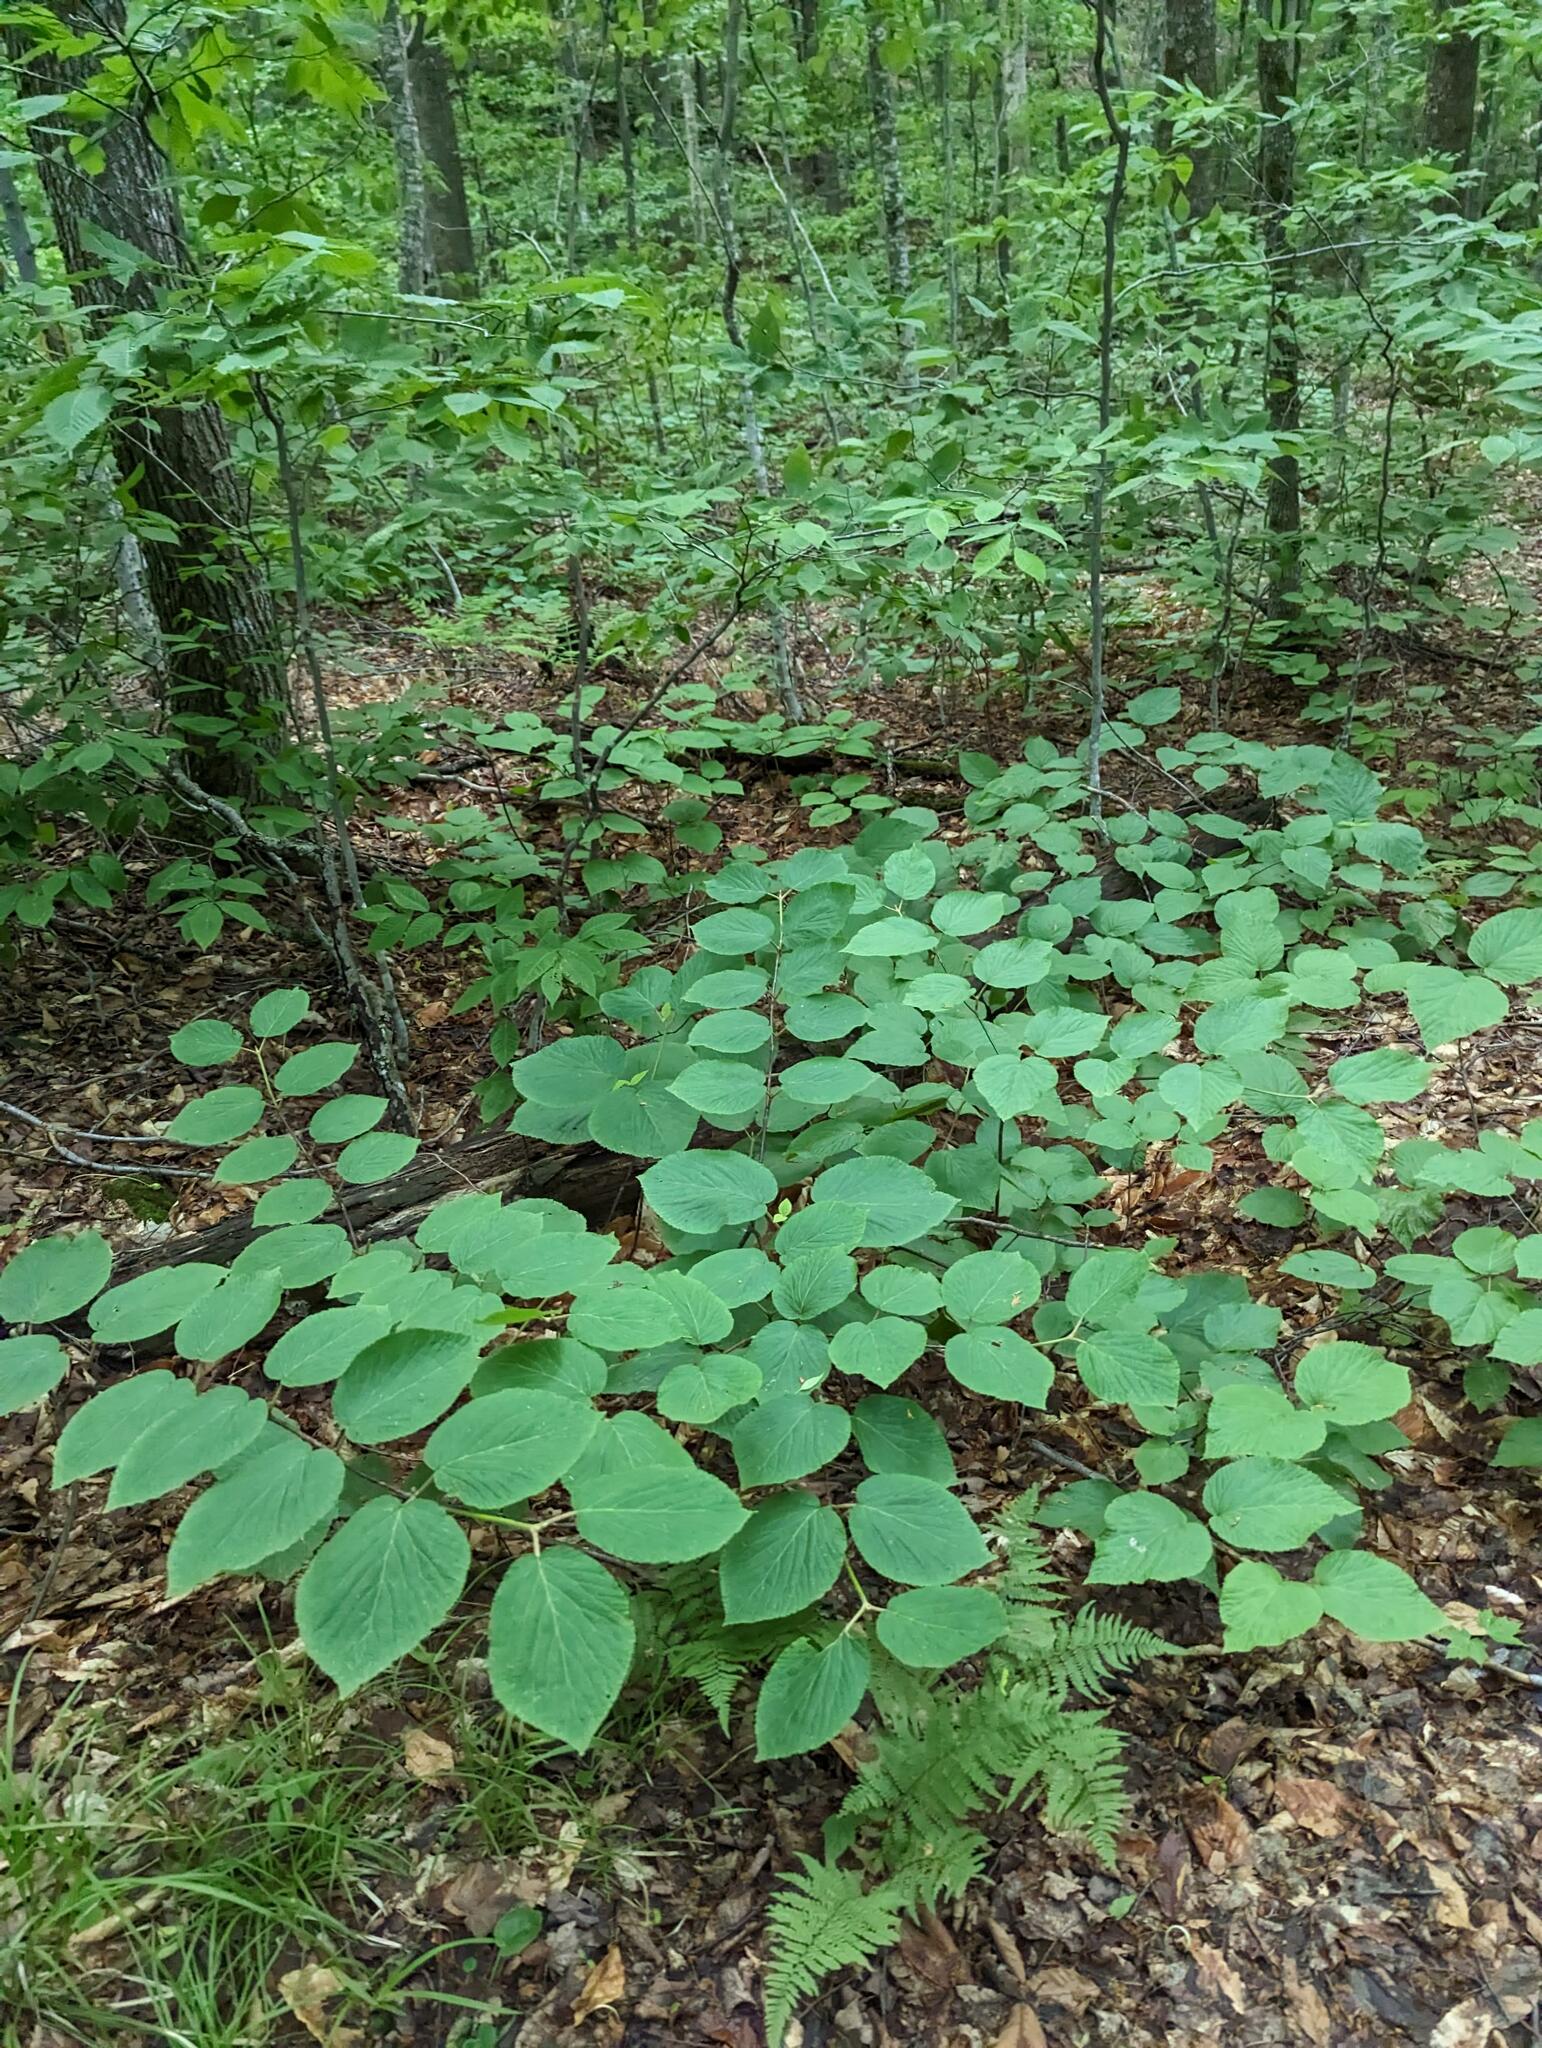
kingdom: Plantae
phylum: Tracheophyta
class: Magnoliopsida
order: Dipsacales
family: Viburnaceae
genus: Viburnum
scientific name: Viburnum lantanoides
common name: Hobblebush
